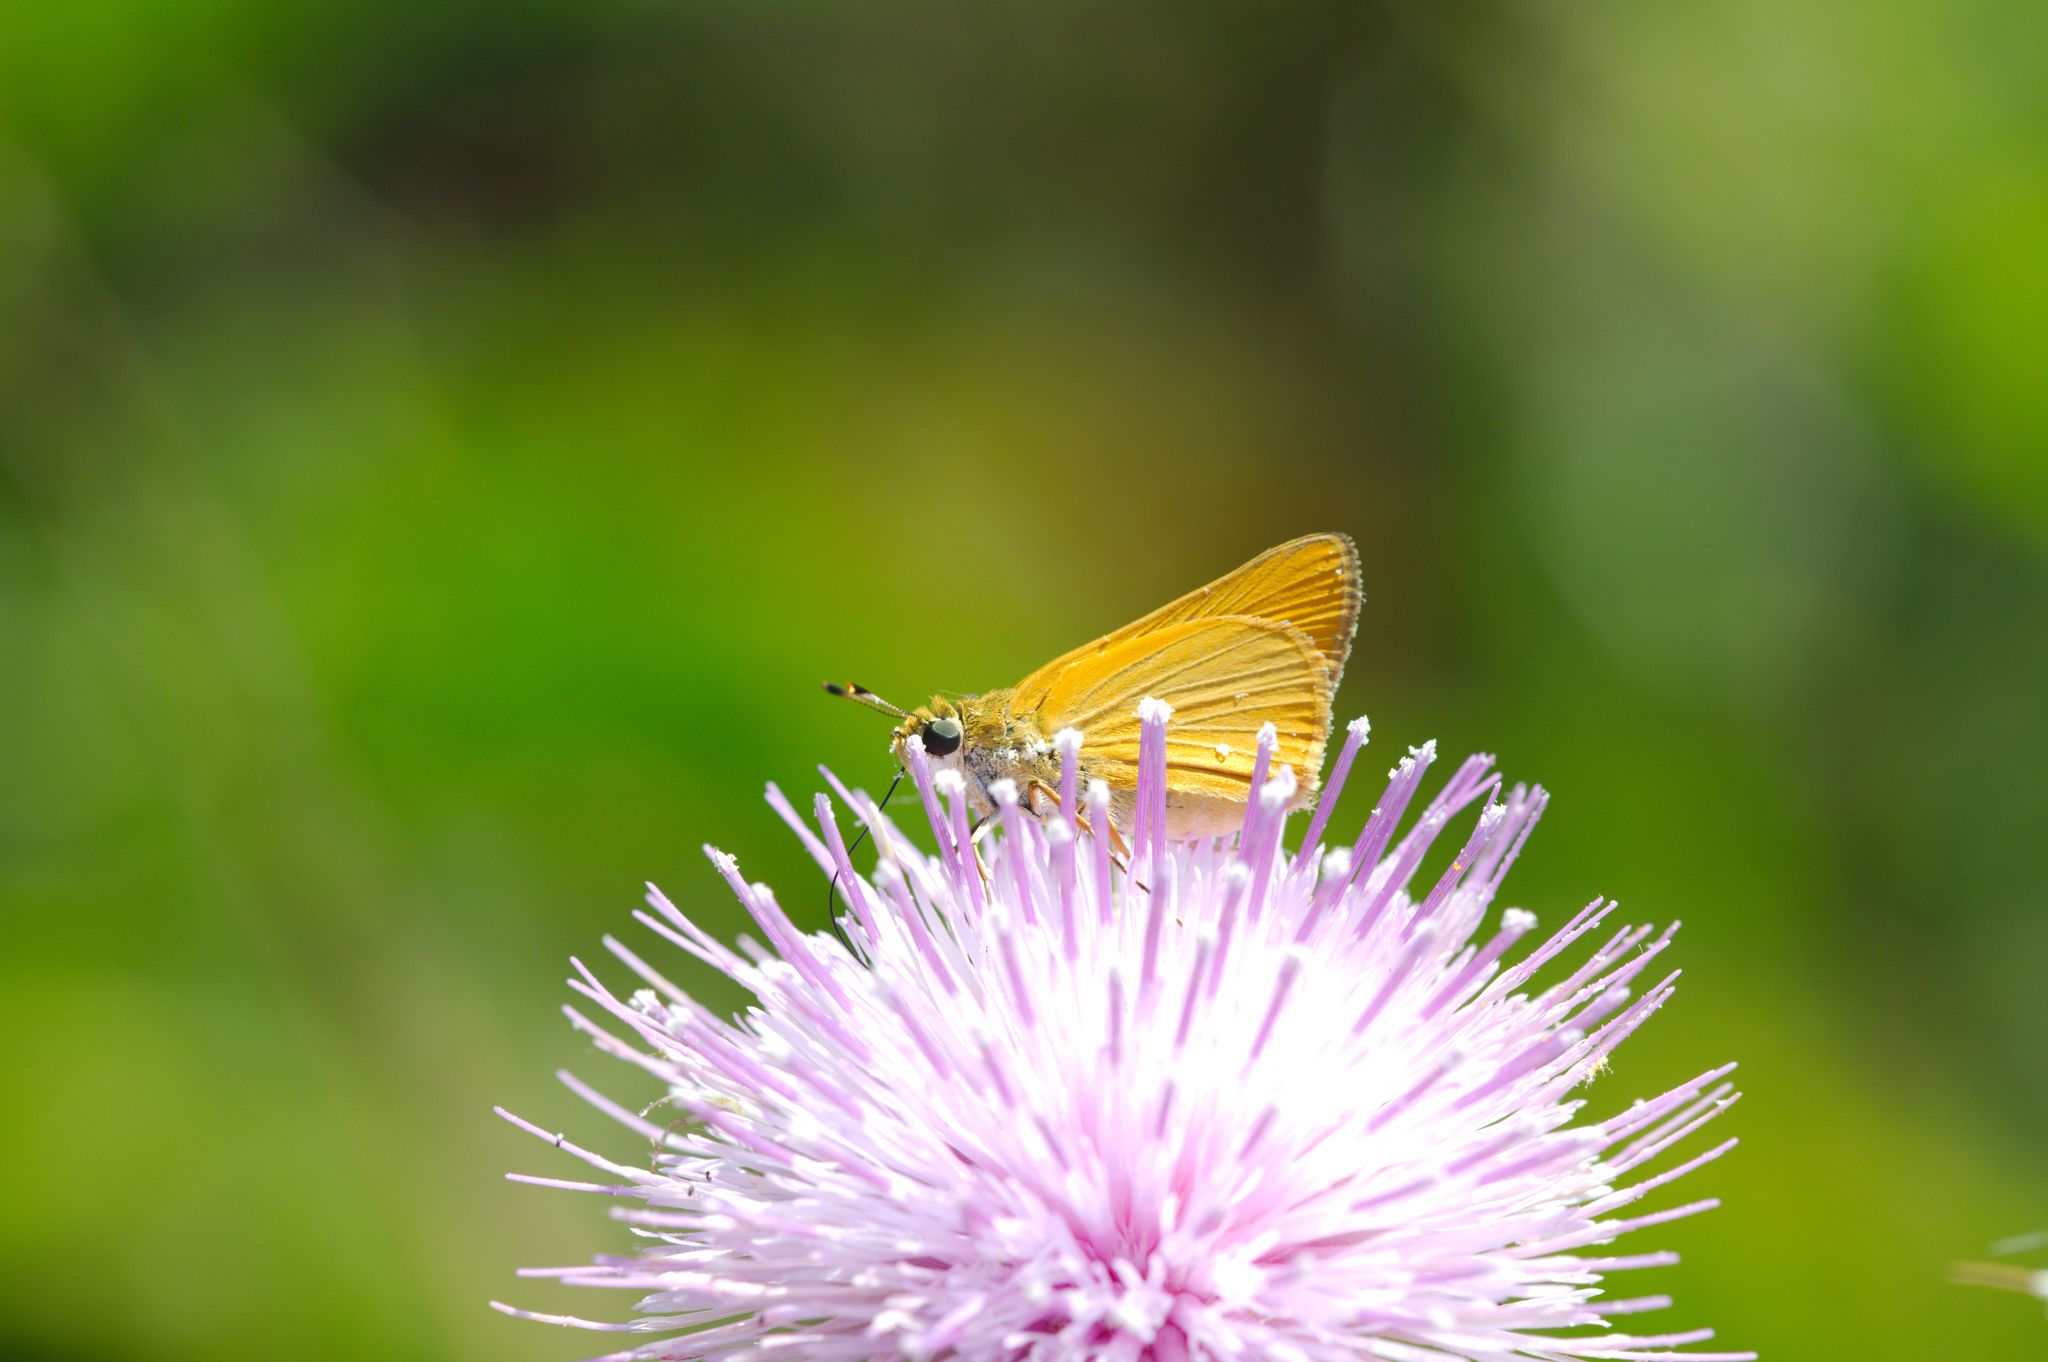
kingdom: Animalia
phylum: Arthropoda
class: Insecta
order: Lepidoptera
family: Hesperiidae
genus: Atrytone
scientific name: Atrytone delaware
